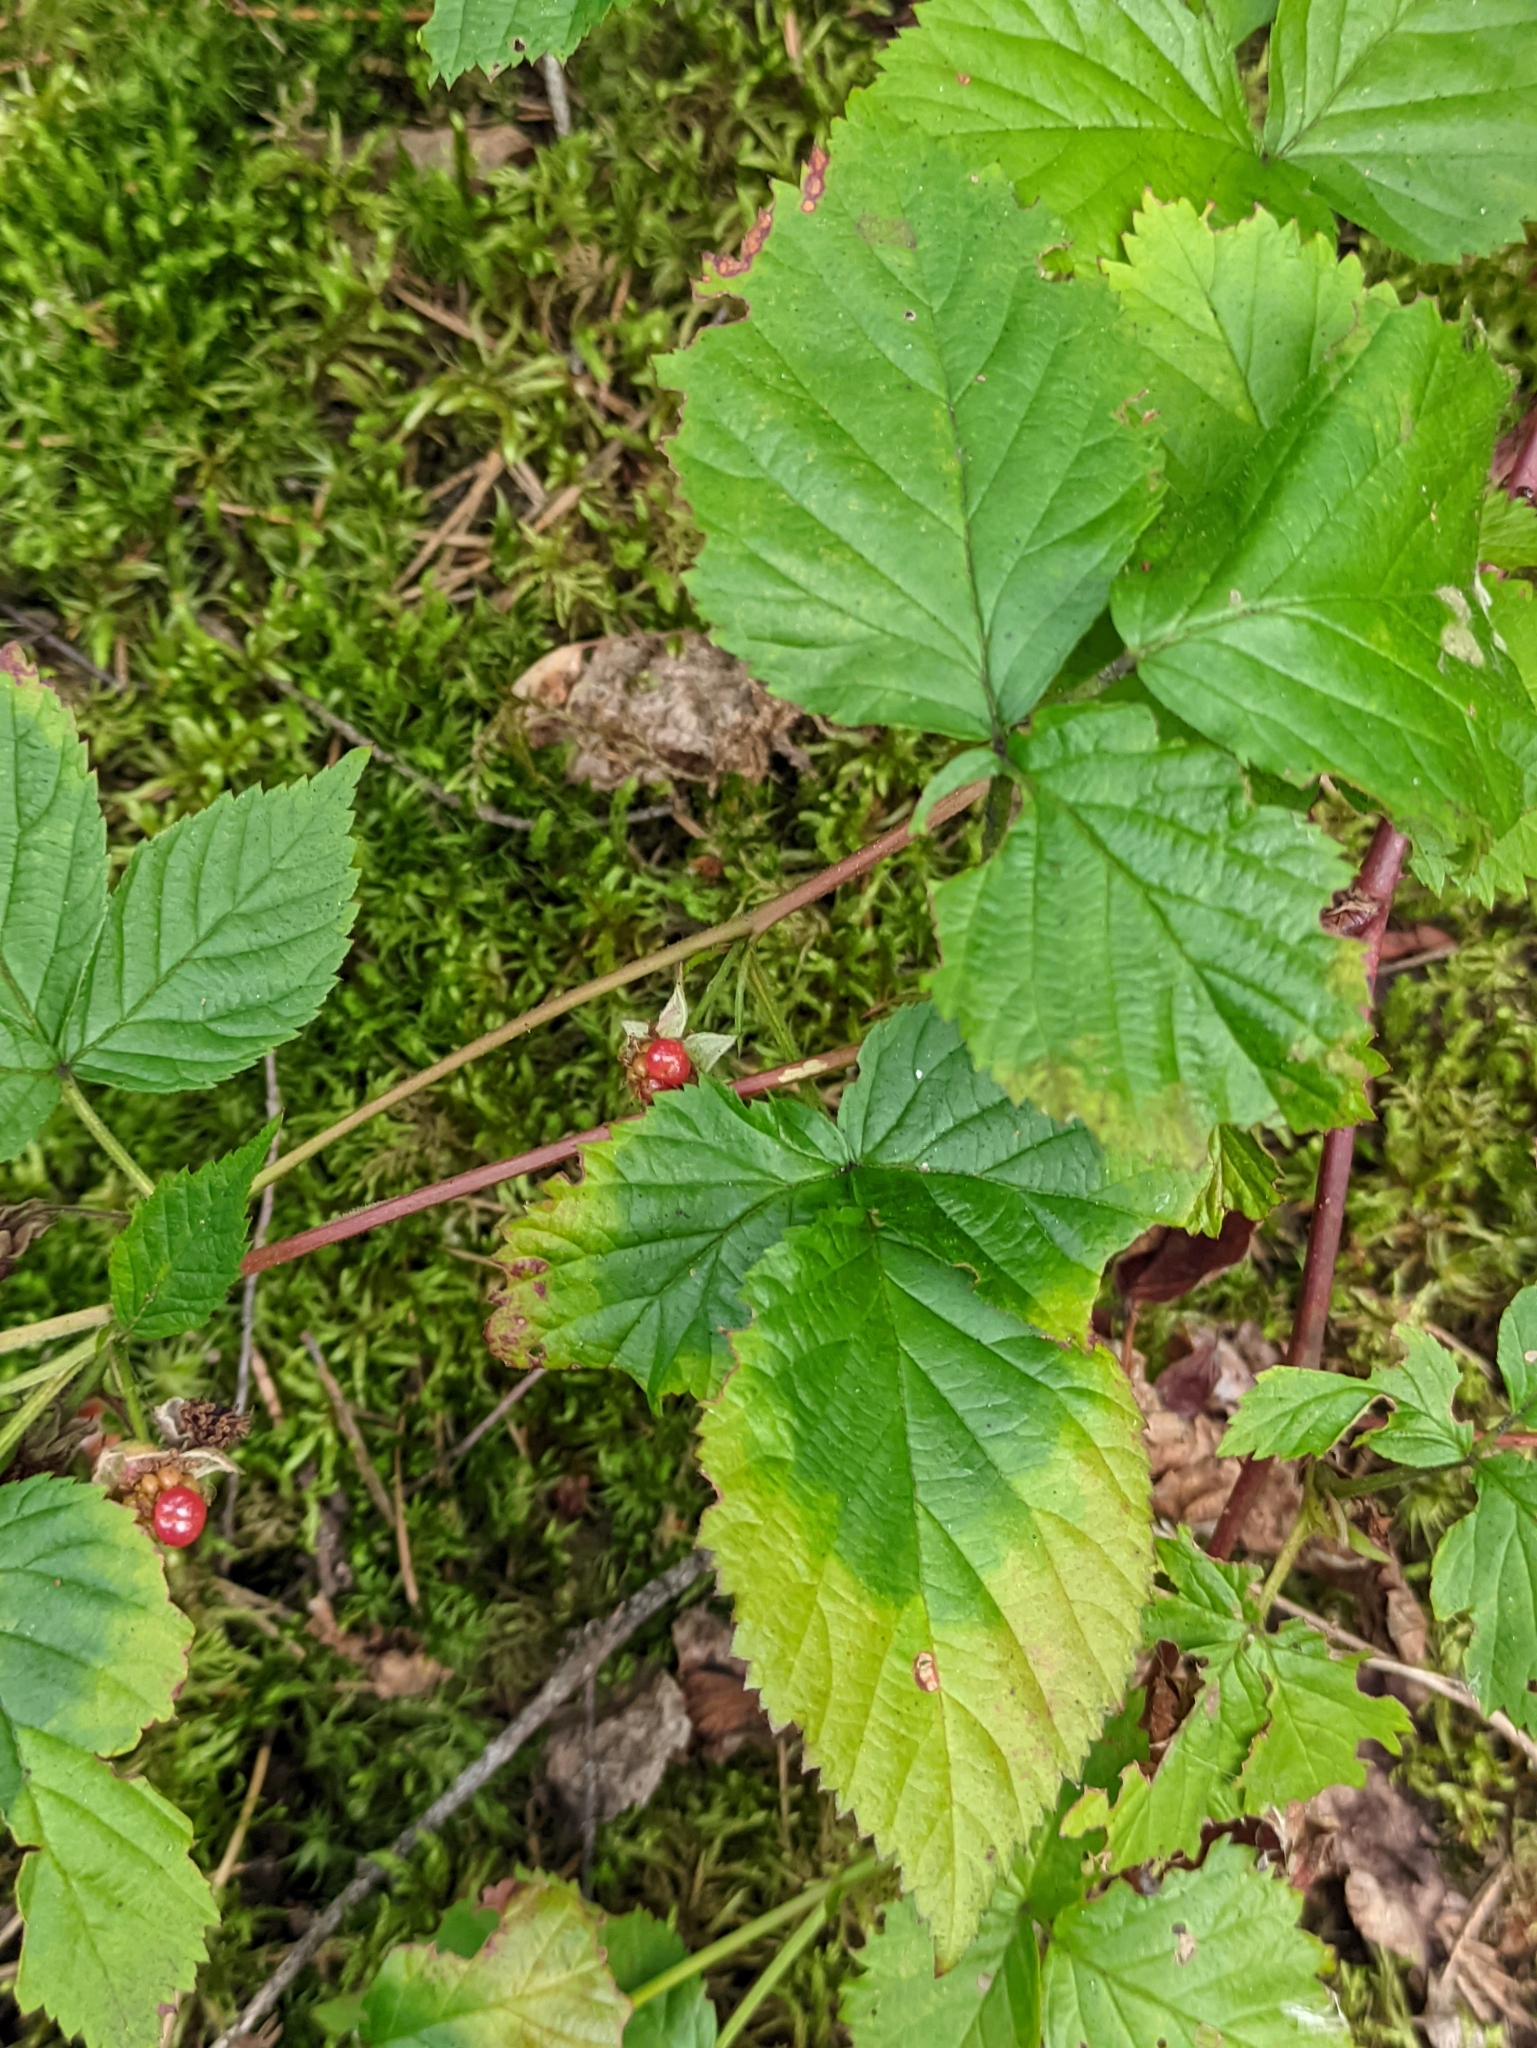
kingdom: Plantae
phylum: Tracheophyta
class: Magnoliopsida
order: Rosales
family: Rosaceae
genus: Rubus
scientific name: Rubus polonicus
